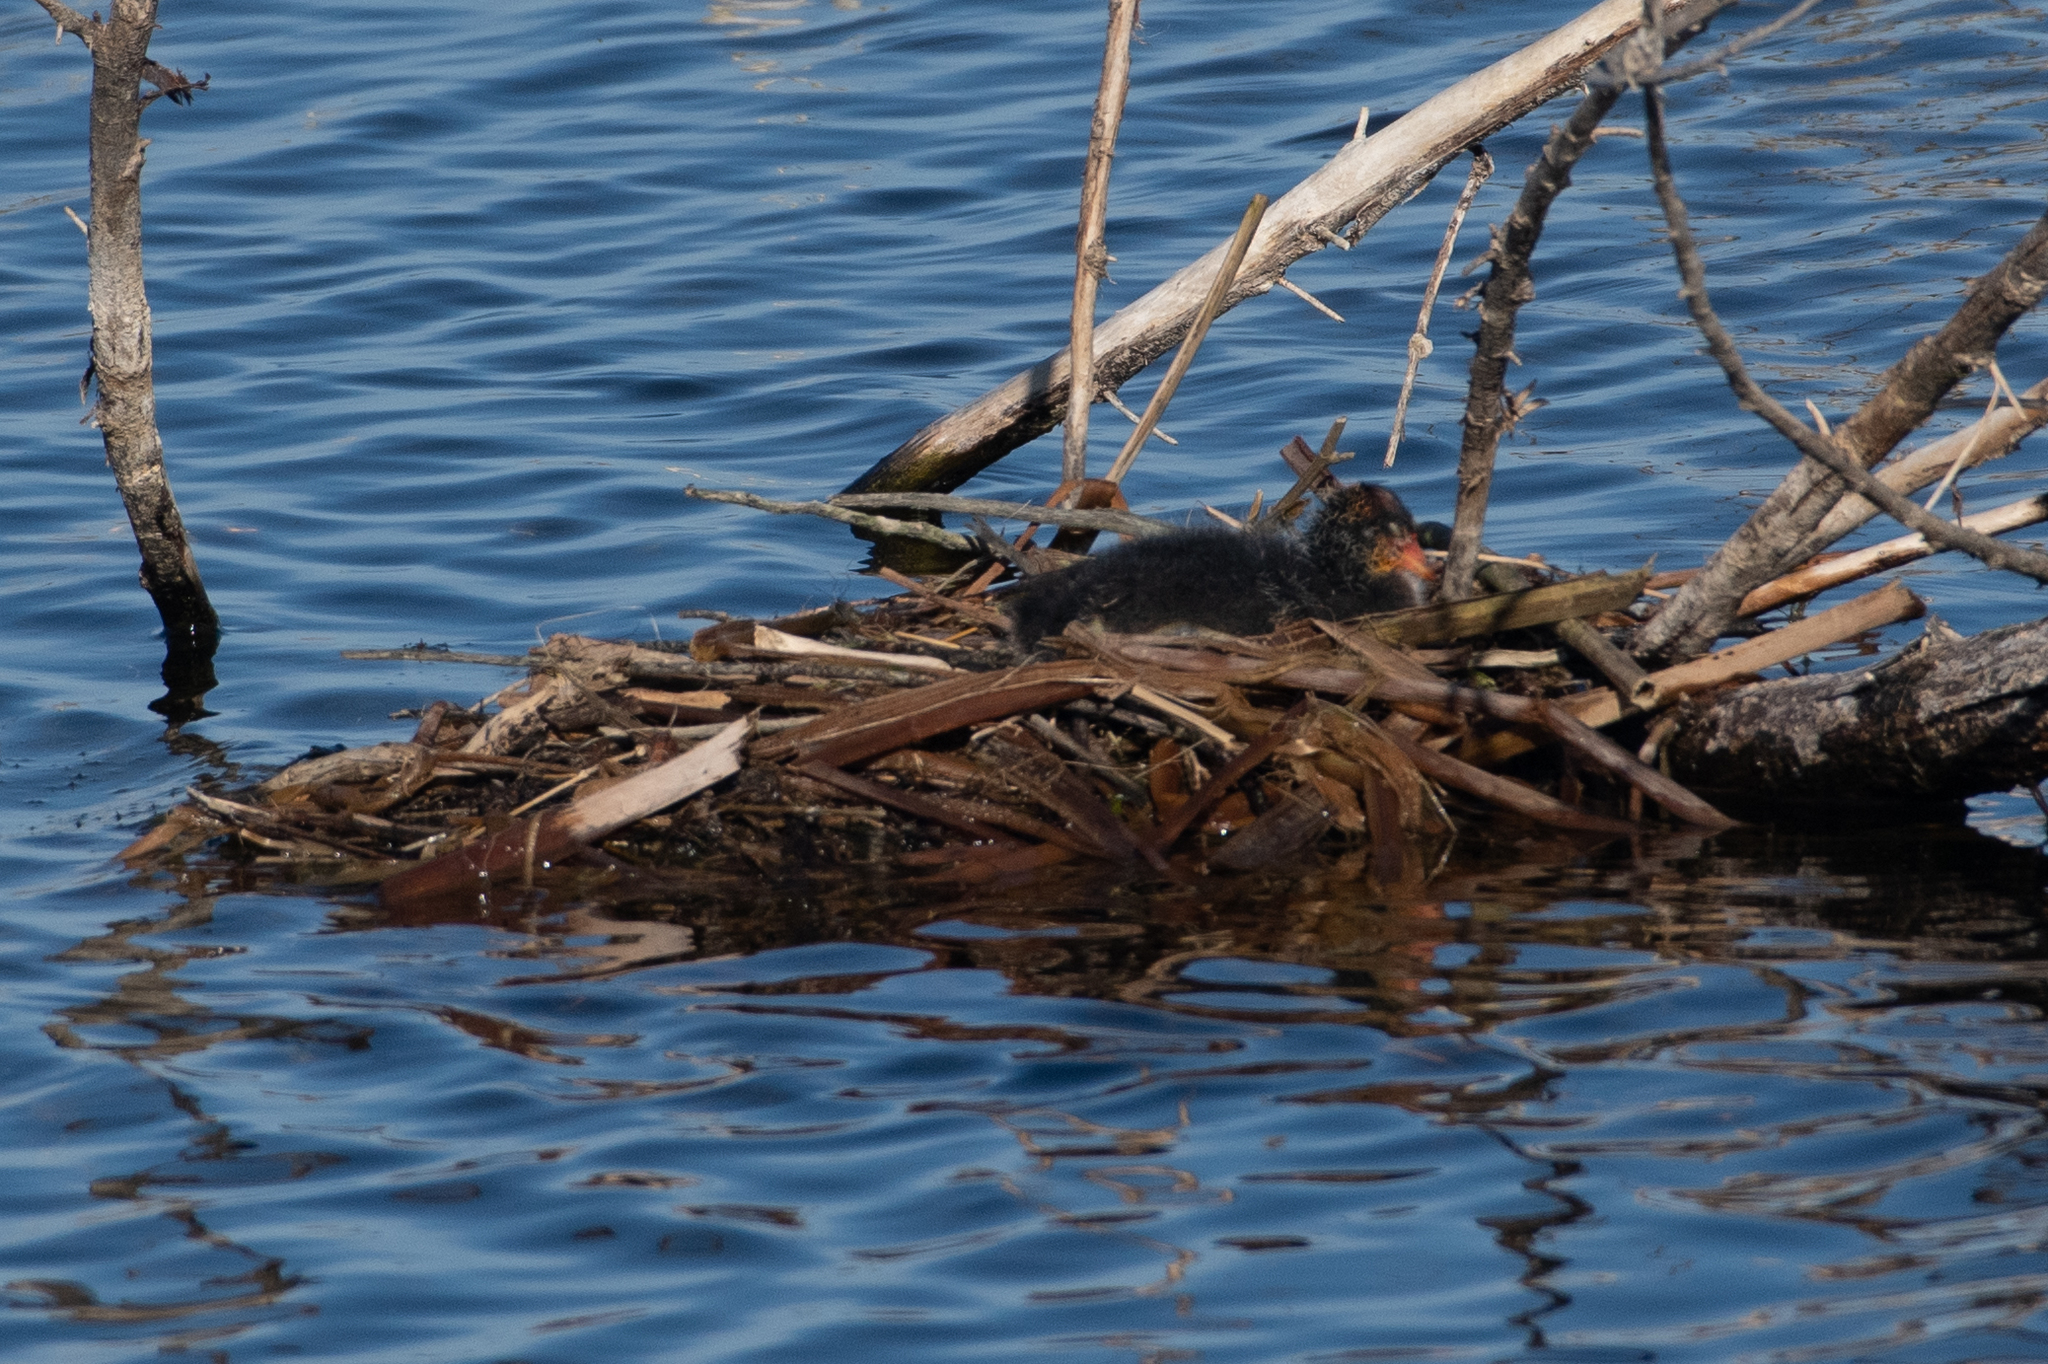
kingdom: Animalia
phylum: Chordata
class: Aves
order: Gruiformes
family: Rallidae
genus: Fulica
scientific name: Fulica americana
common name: American coot
